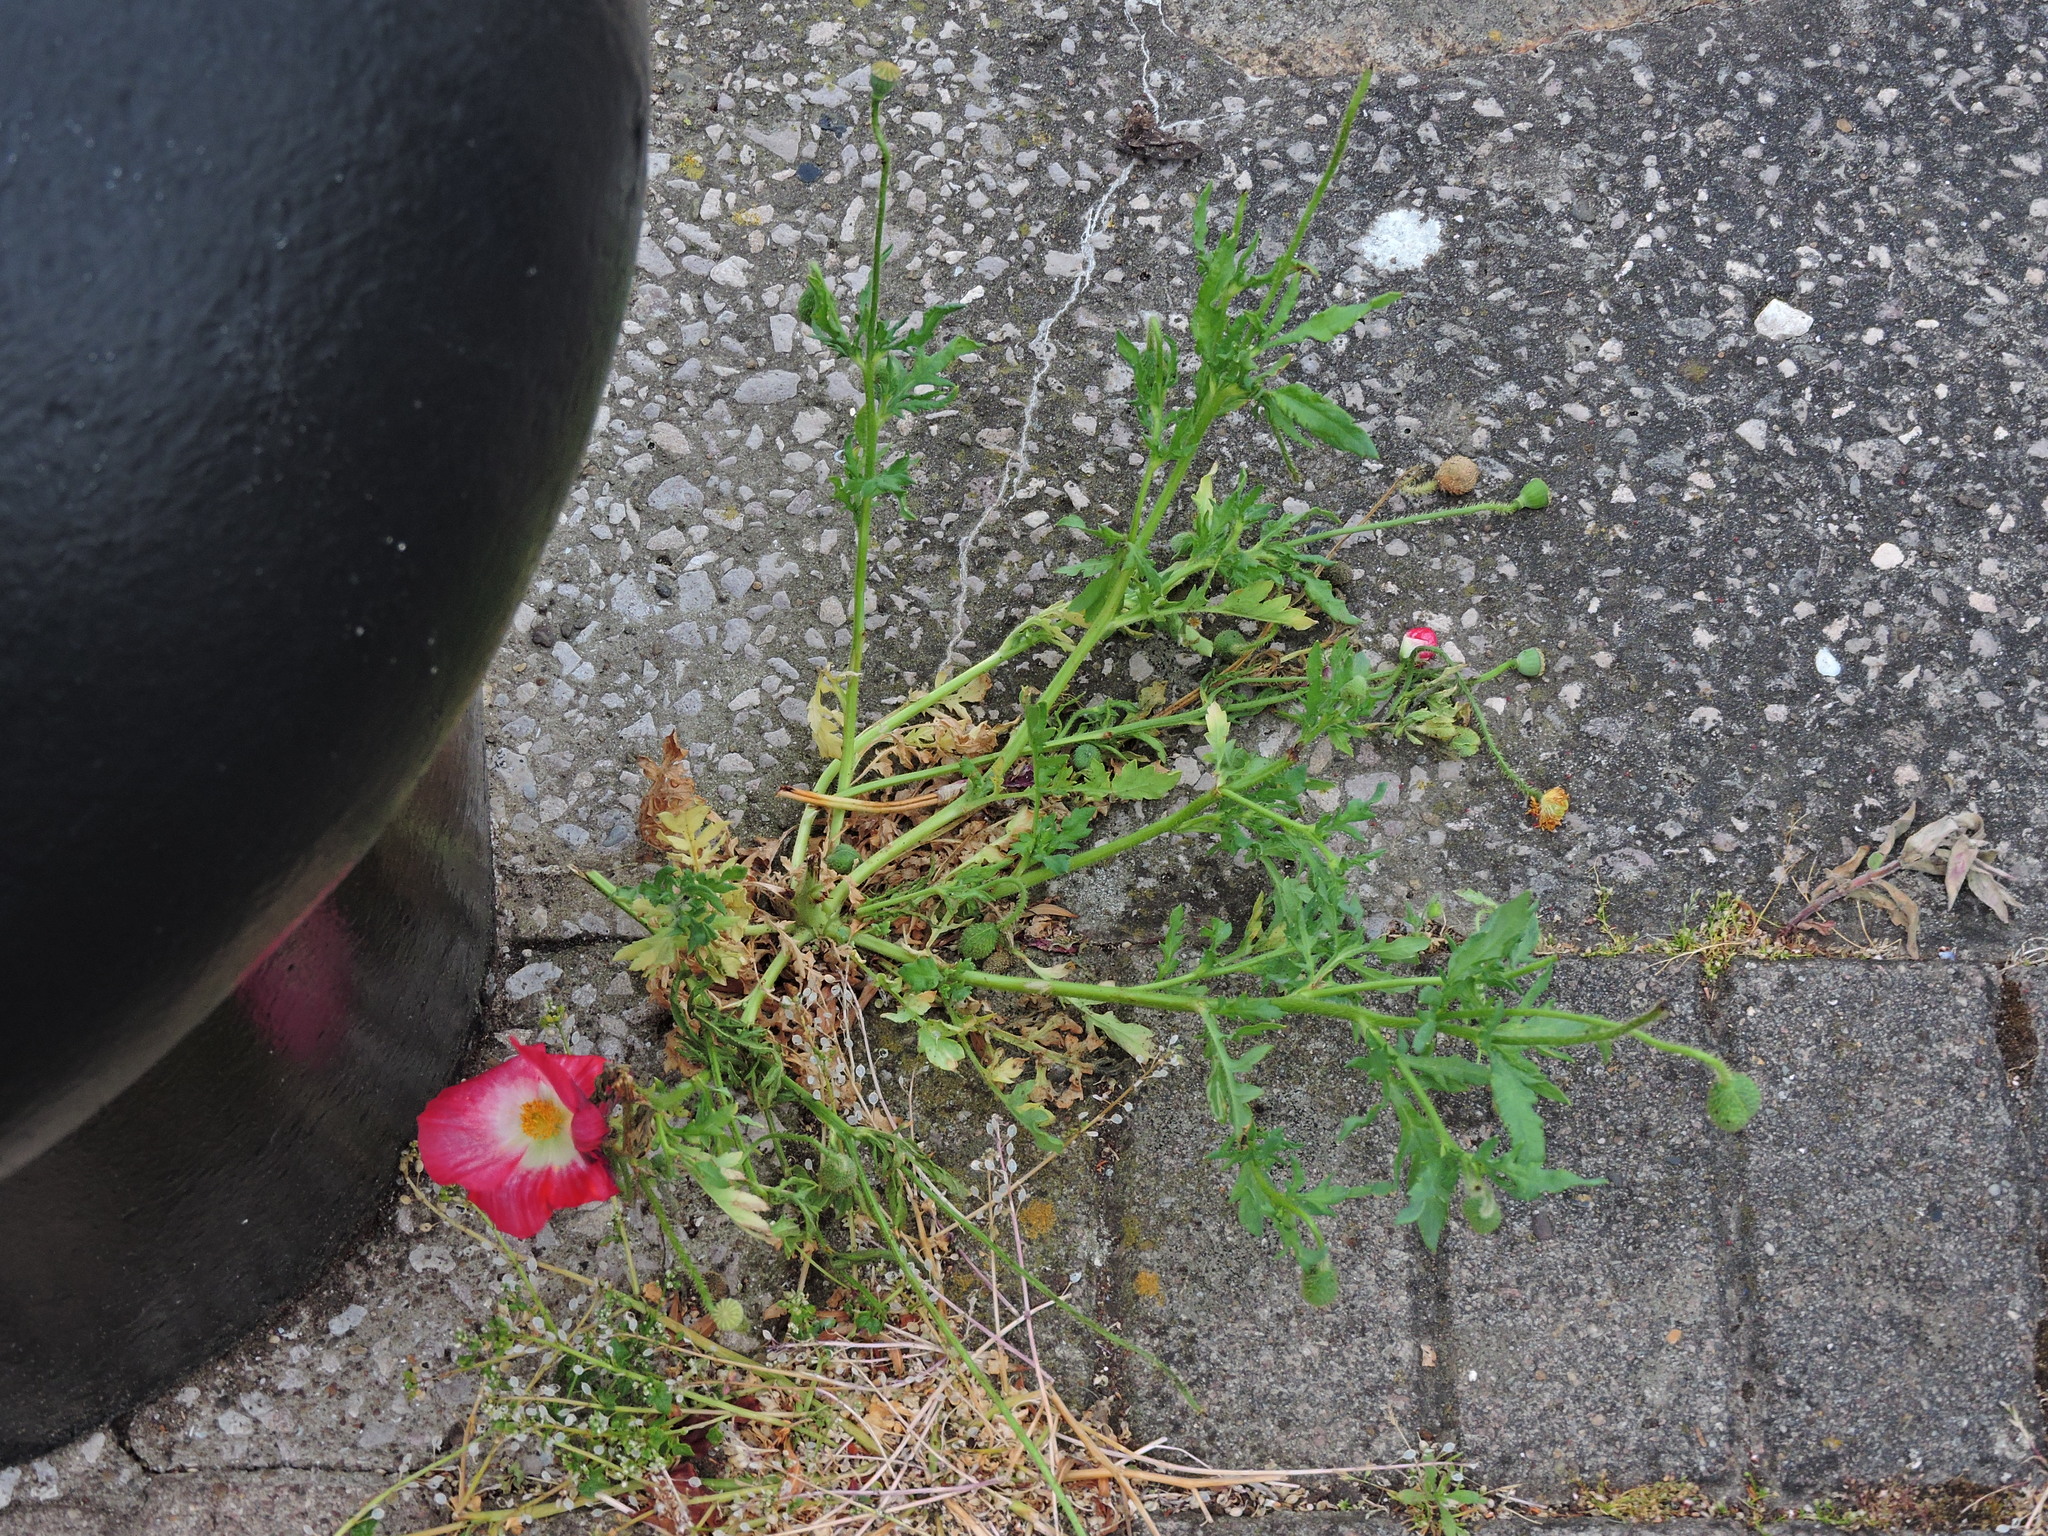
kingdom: Plantae
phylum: Tracheophyta
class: Magnoliopsida
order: Ranunculales
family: Papaveraceae
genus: Papaver
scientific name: Papaver rhoeas
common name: Corn poppy
